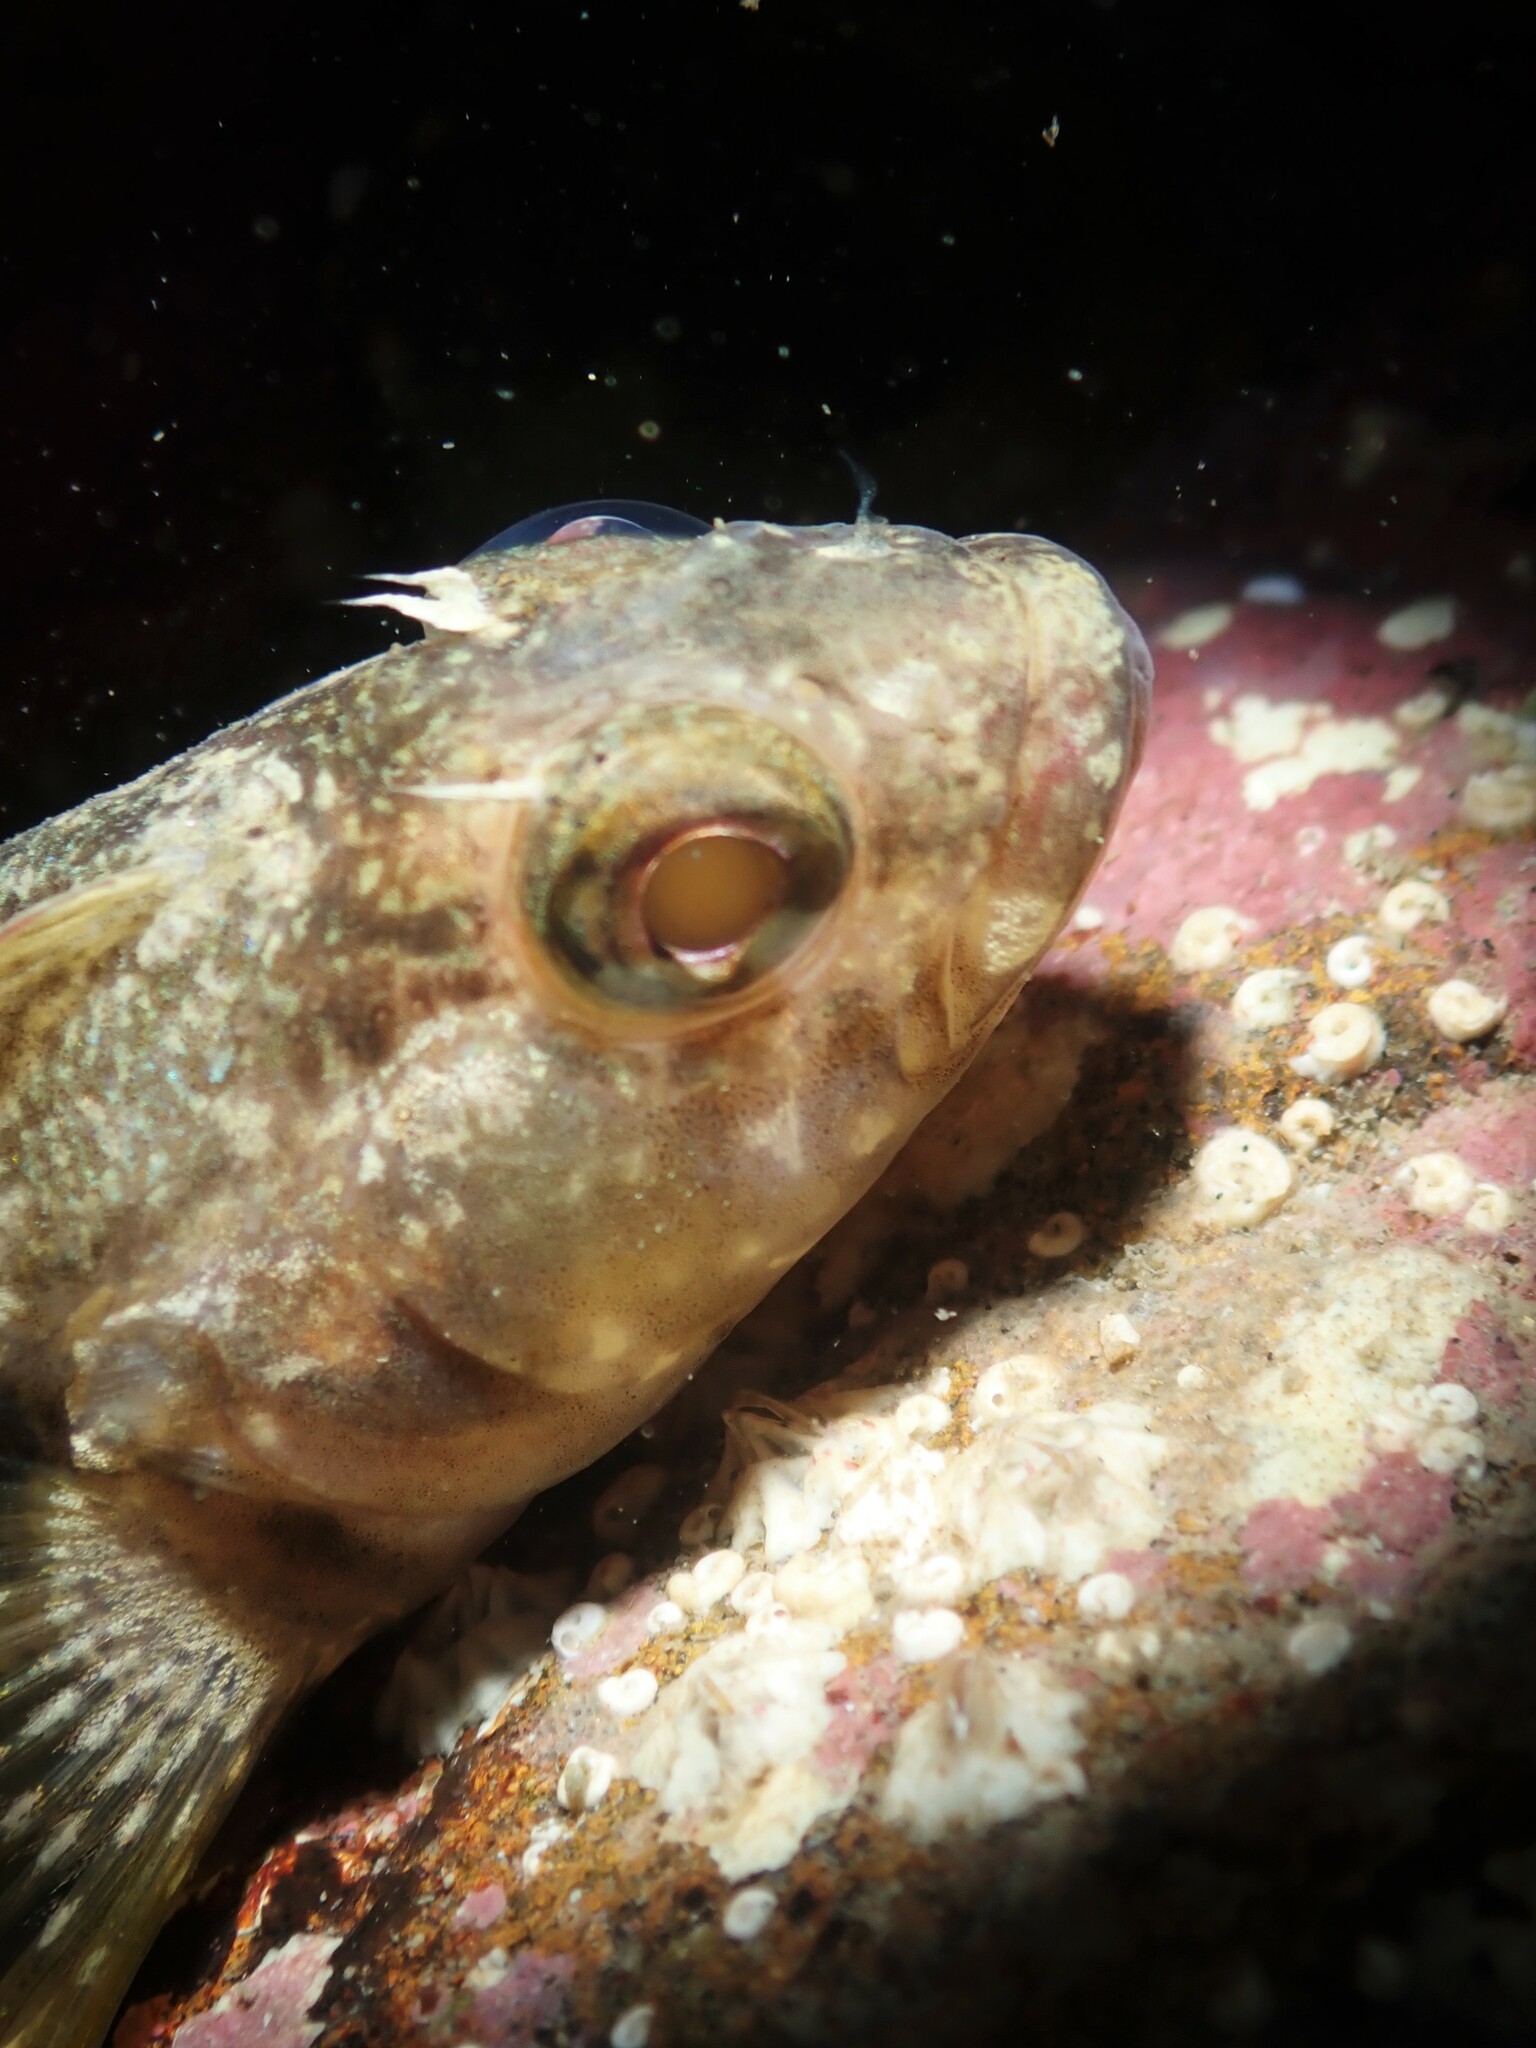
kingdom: Animalia
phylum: Chordata
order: Perciformes
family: Tripterygiidae
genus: Forsterygion
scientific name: Forsterygion gymnotum
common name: Multifid-tentacled robust triplefin
